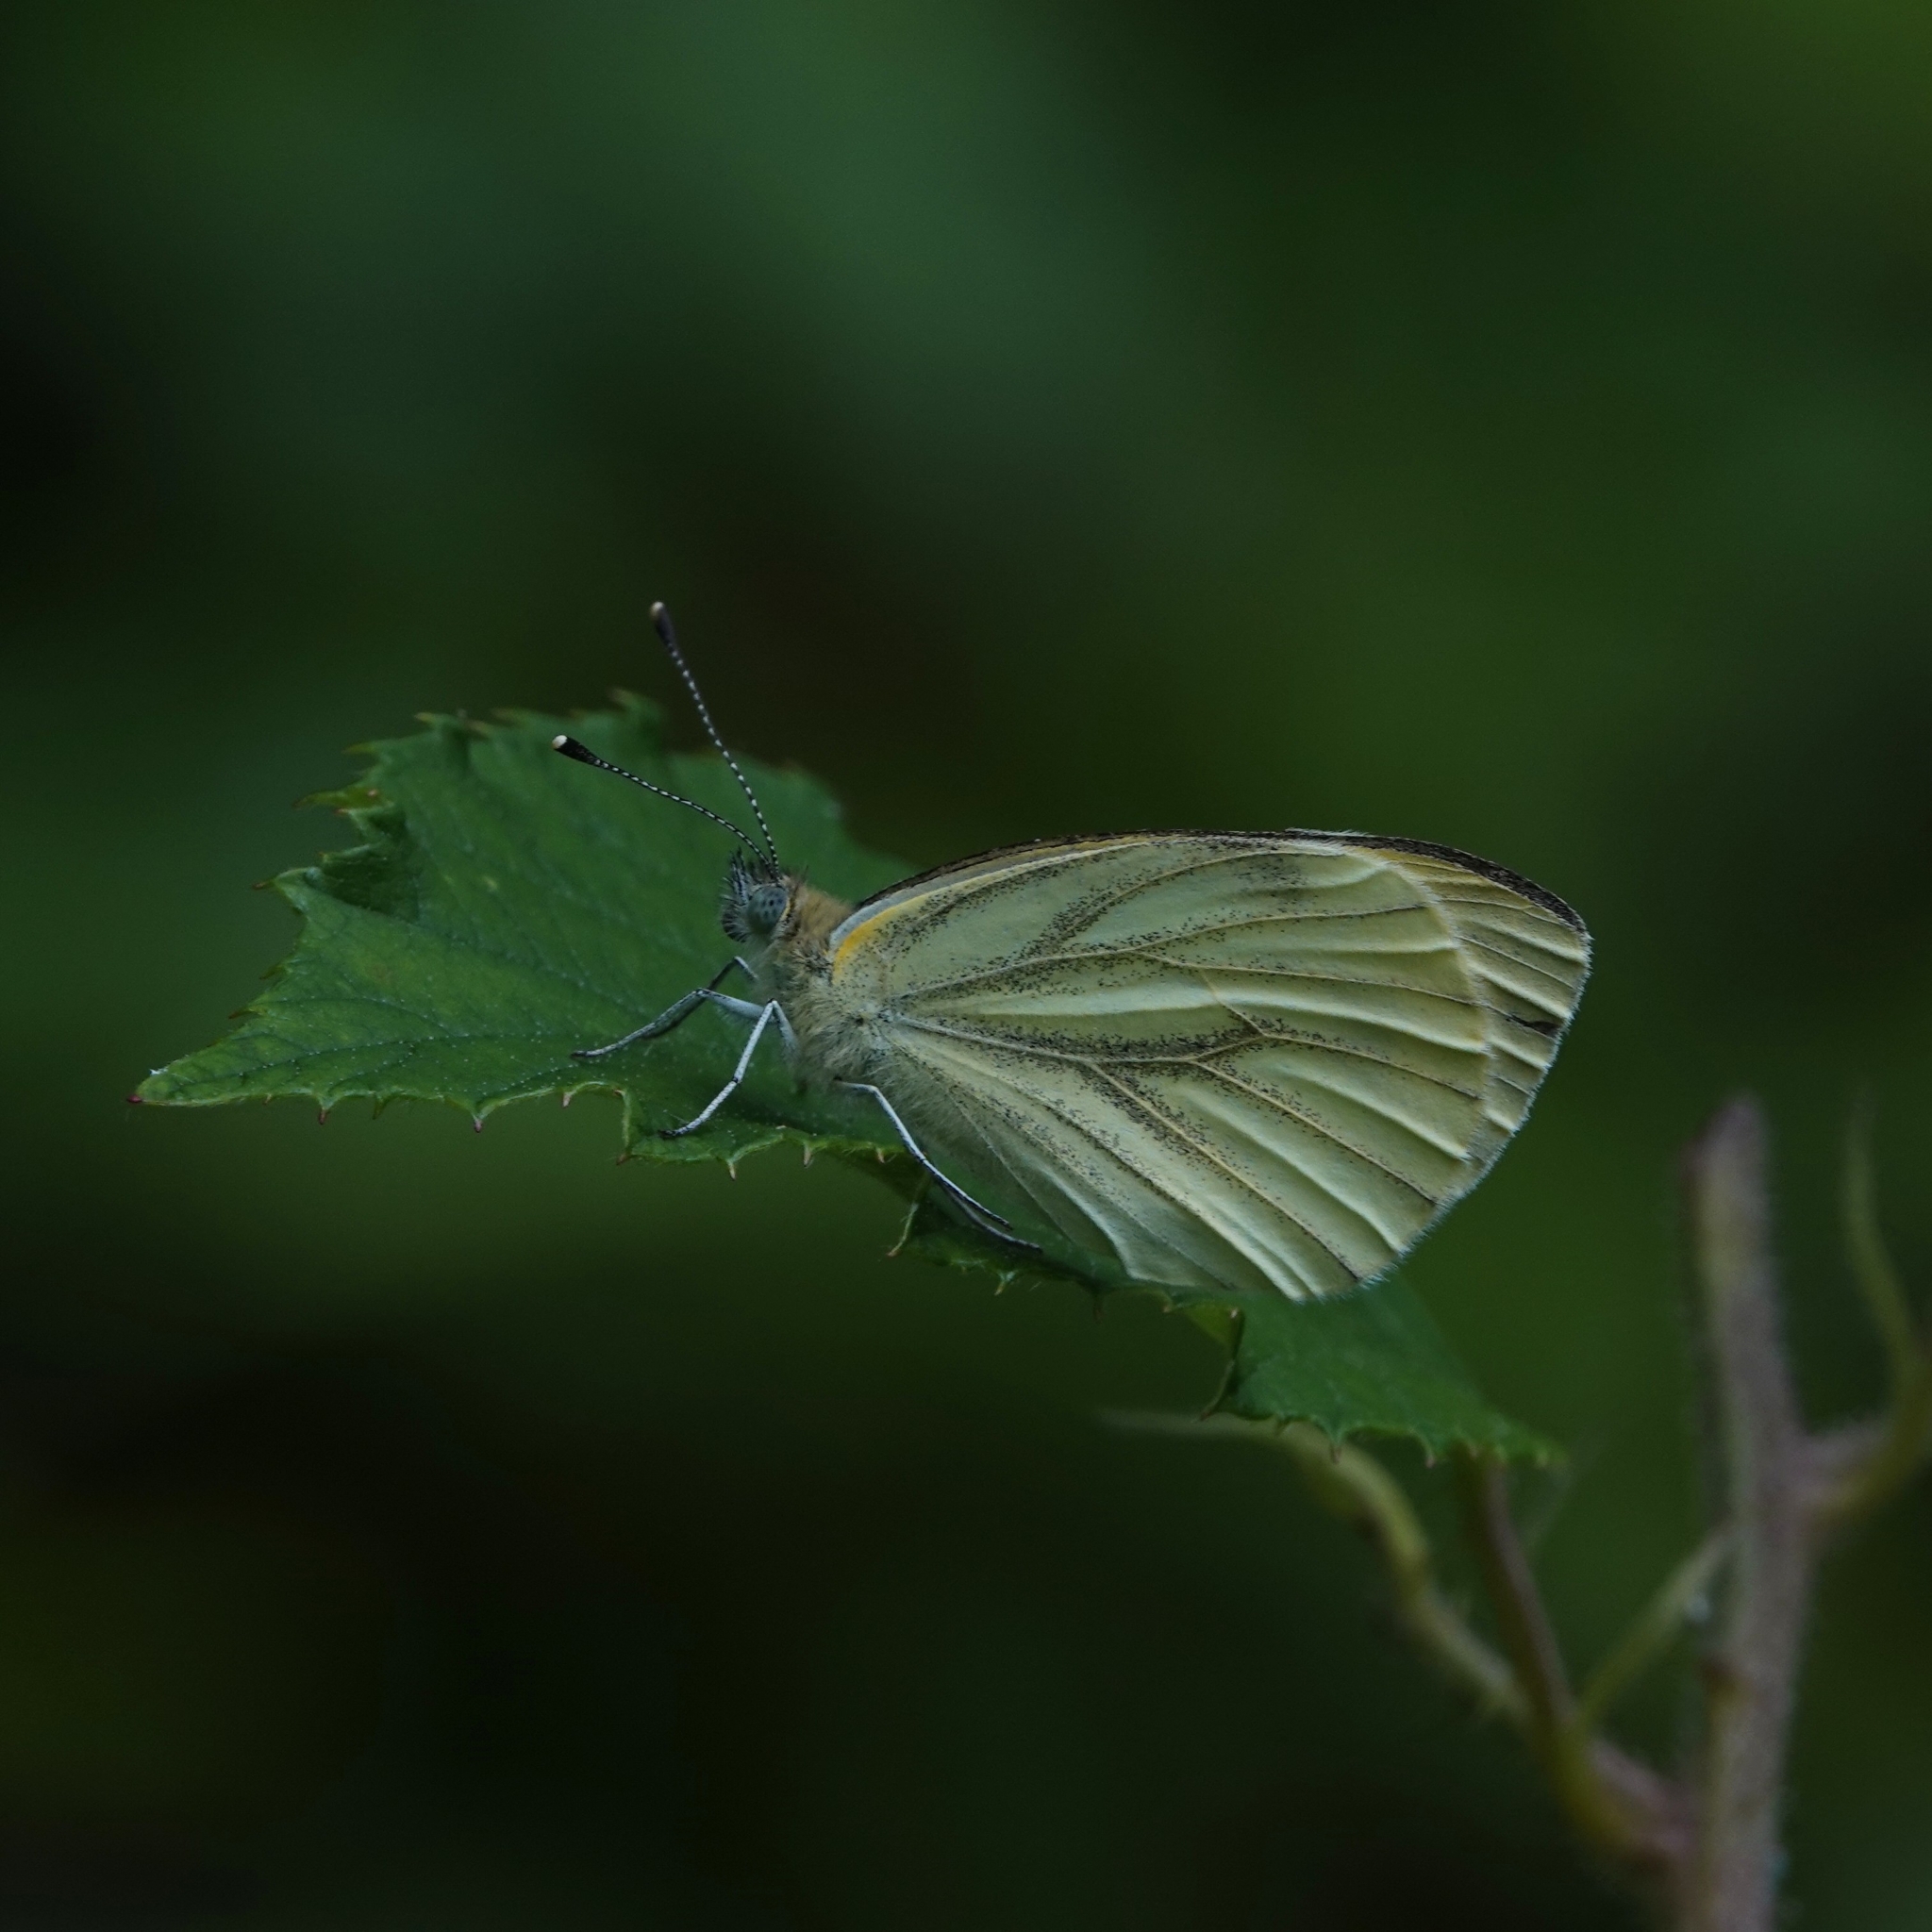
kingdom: Animalia
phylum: Arthropoda
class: Insecta
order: Lepidoptera
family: Pieridae
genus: Pieris
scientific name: Pieris napi
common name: Green-veined white
